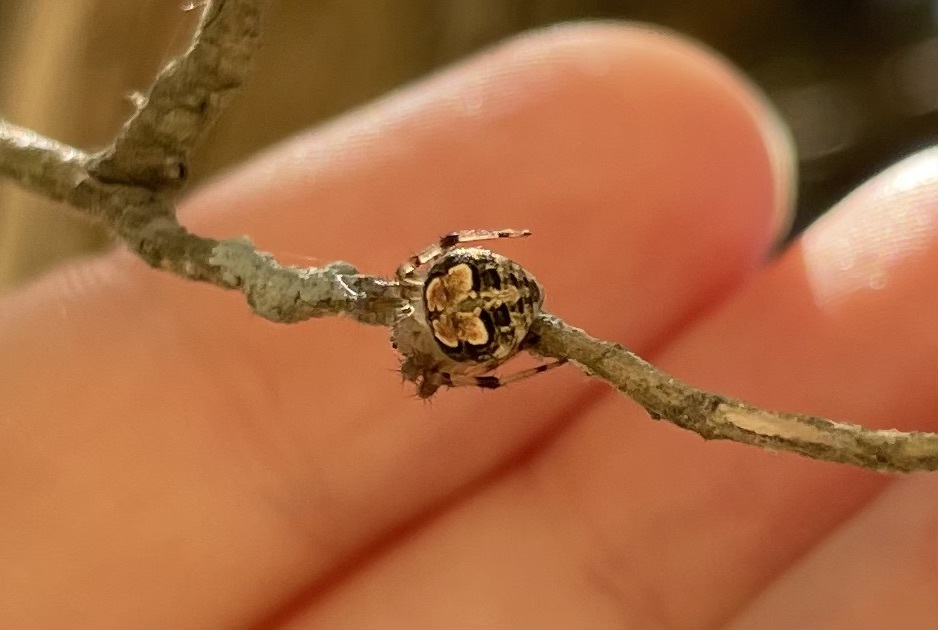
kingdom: Animalia
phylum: Arthropoda
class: Arachnida
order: Araneae
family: Araneidae
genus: Araneus
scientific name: Araneus pegnia
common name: Orb weavers
